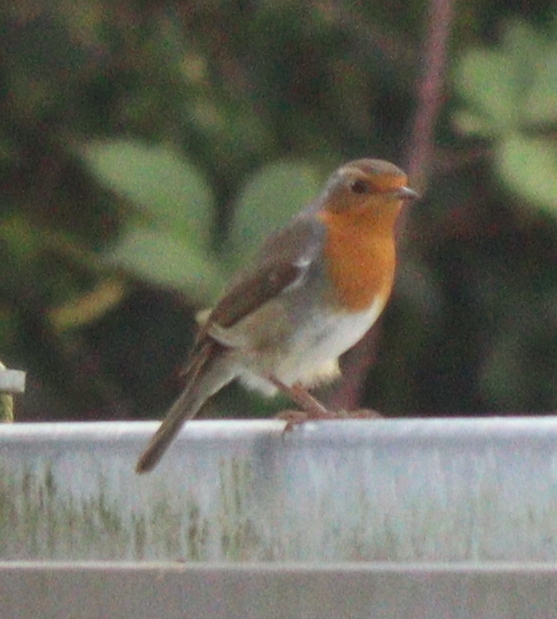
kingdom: Animalia
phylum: Chordata
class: Aves
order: Passeriformes
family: Muscicapidae
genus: Erithacus
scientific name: Erithacus rubecula
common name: European robin
